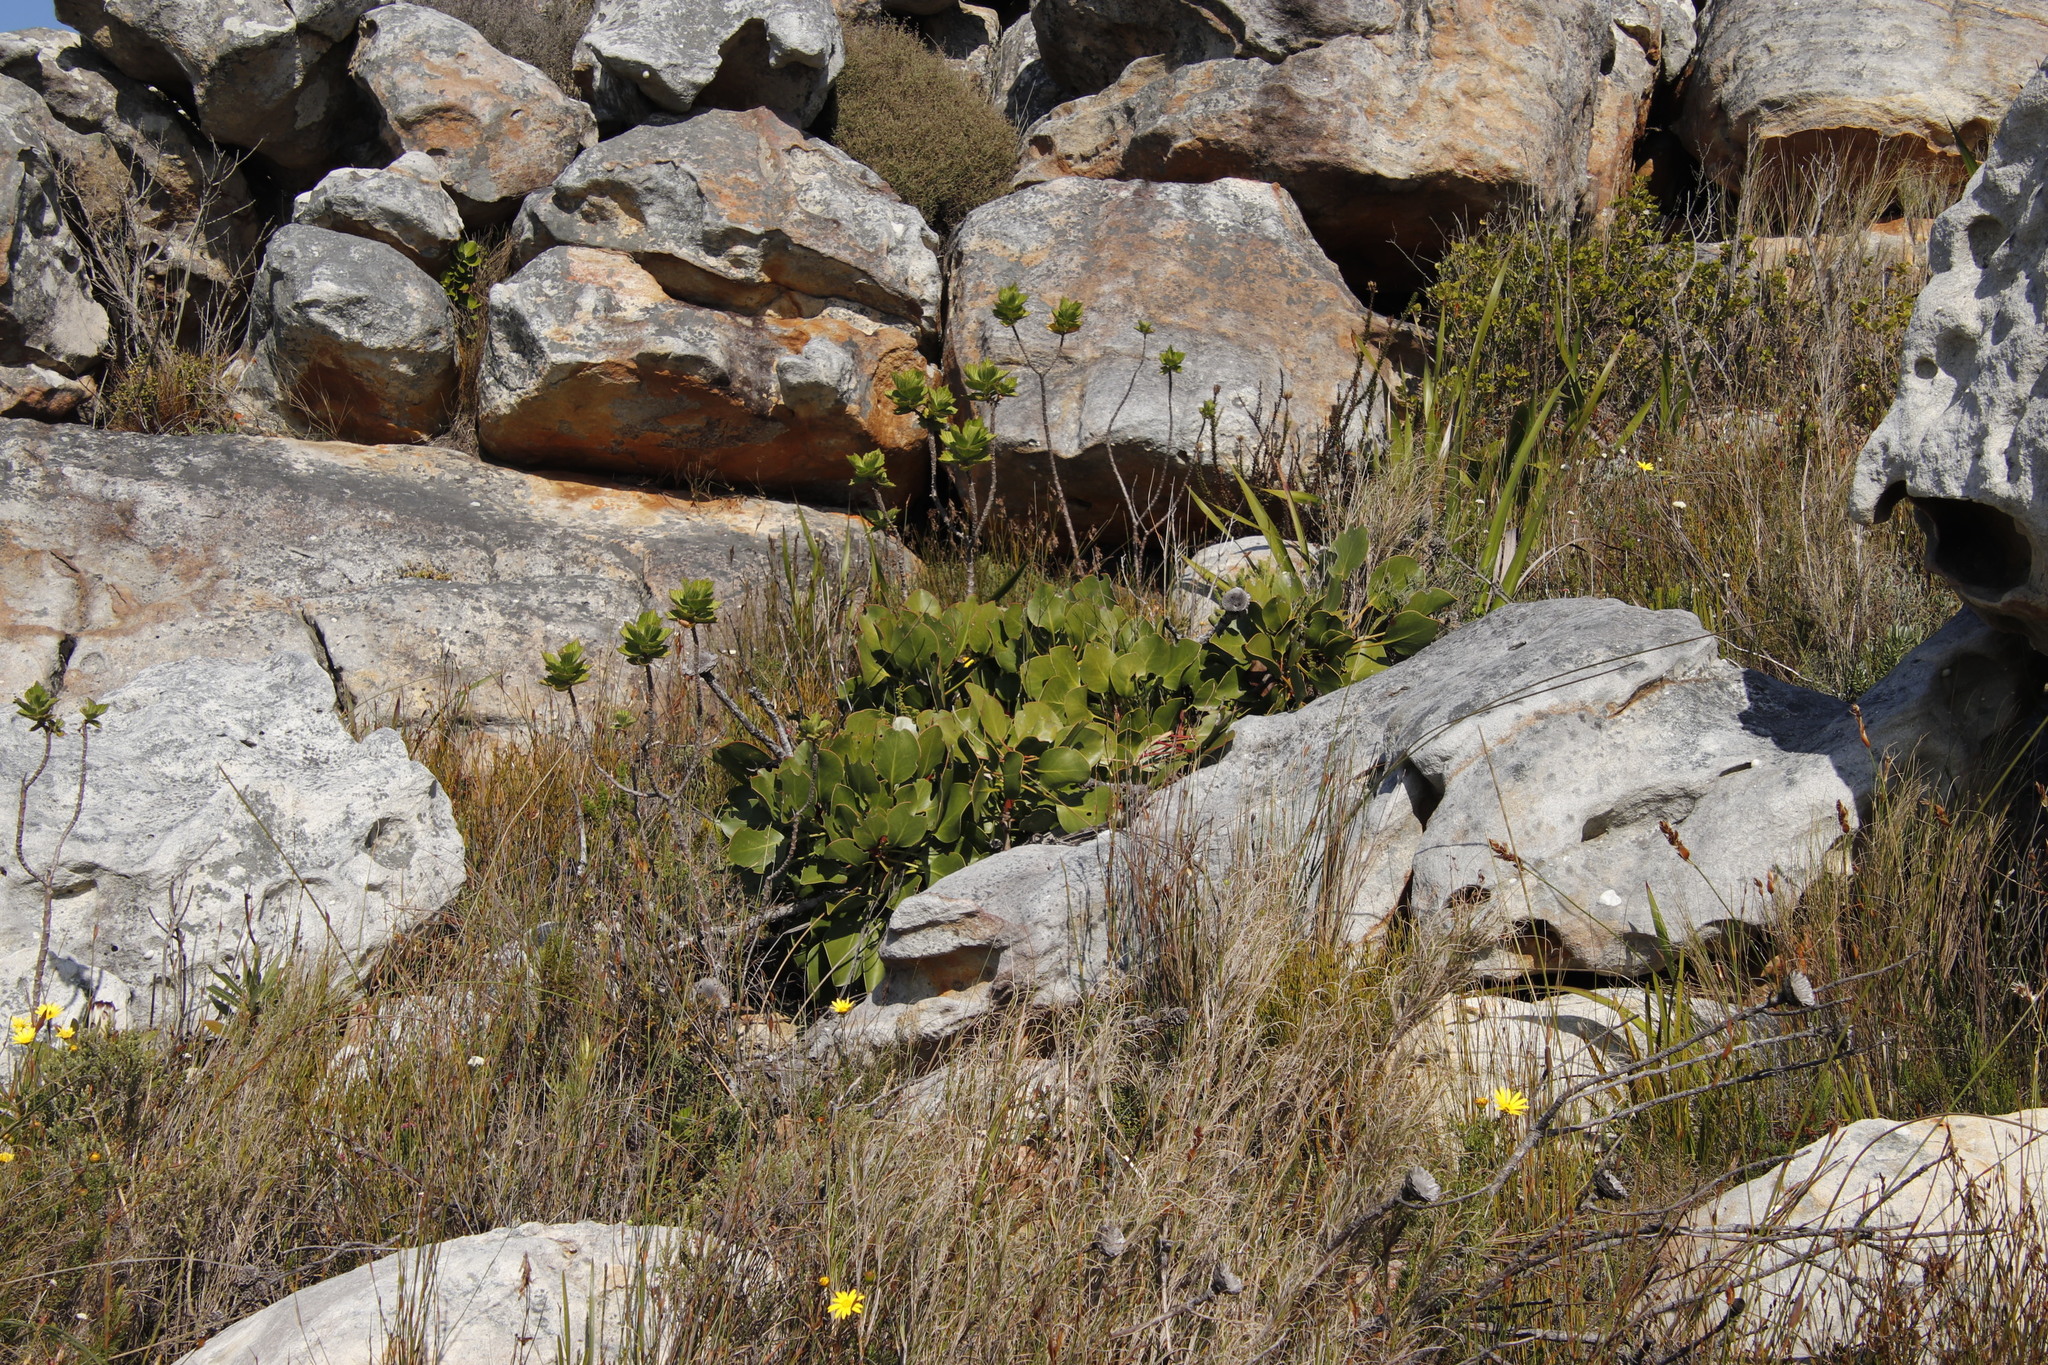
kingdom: Plantae
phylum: Tracheophyta
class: Magnoliopsida
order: Proteales
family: Proteaceae
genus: Protea
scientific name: Protea cynaroides
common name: King protea
